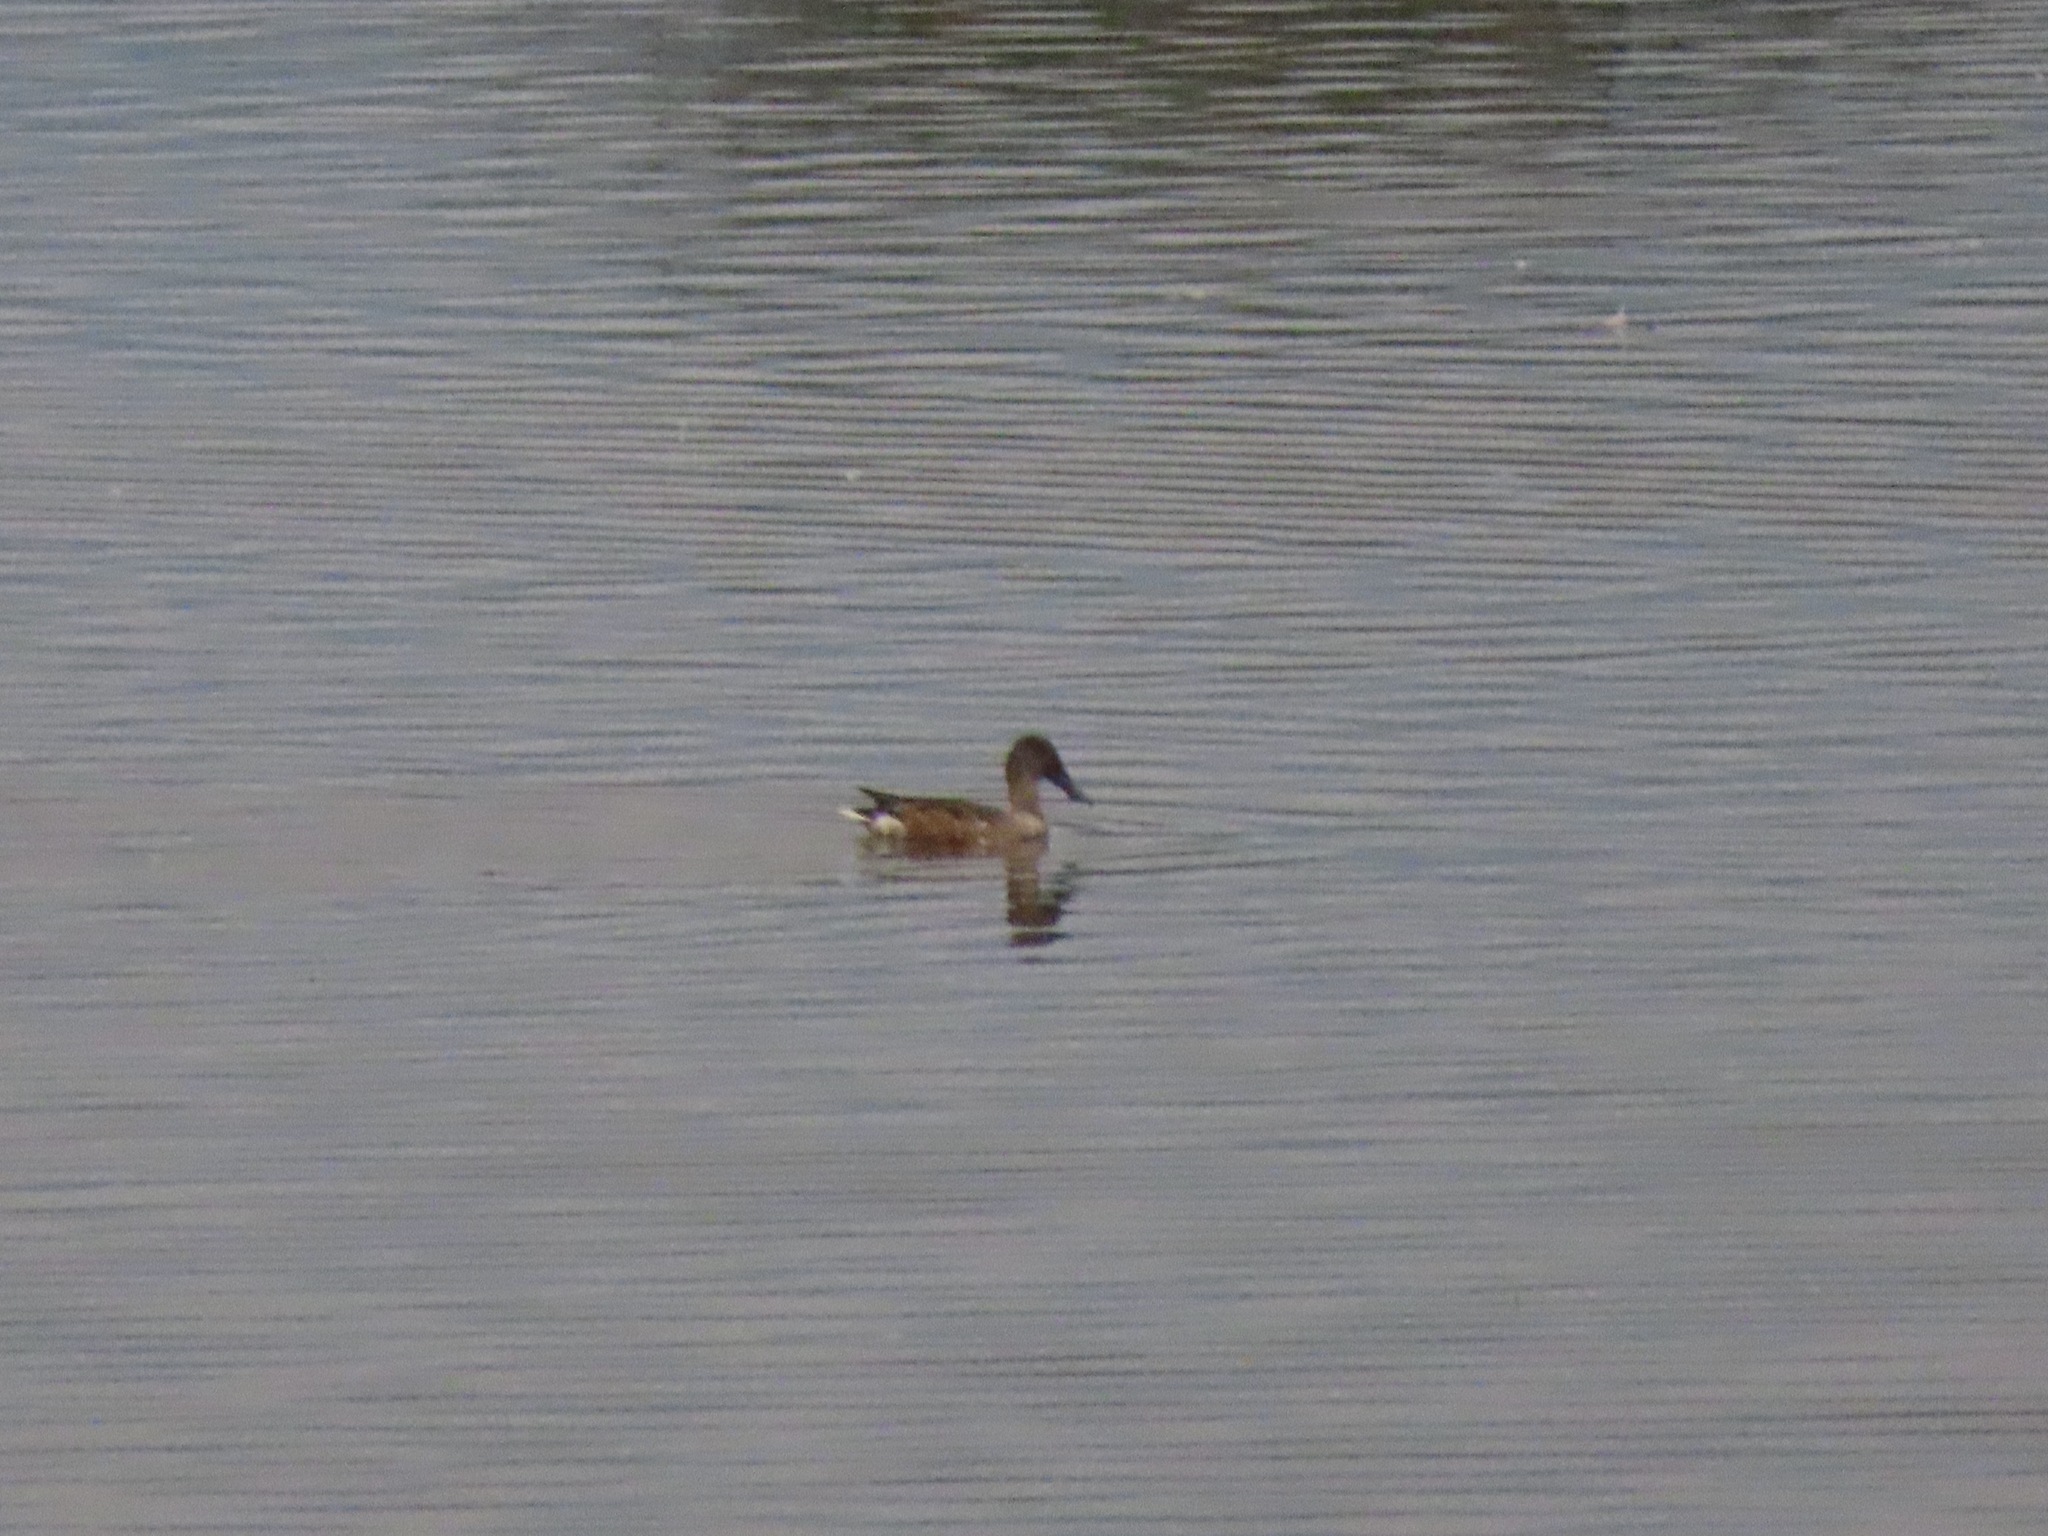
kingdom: Animalia
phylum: Chordata
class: Aves
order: Anseriformes
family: Anatidae
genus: Spatula
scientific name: Spatula clypeata
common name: Northern shoveler
